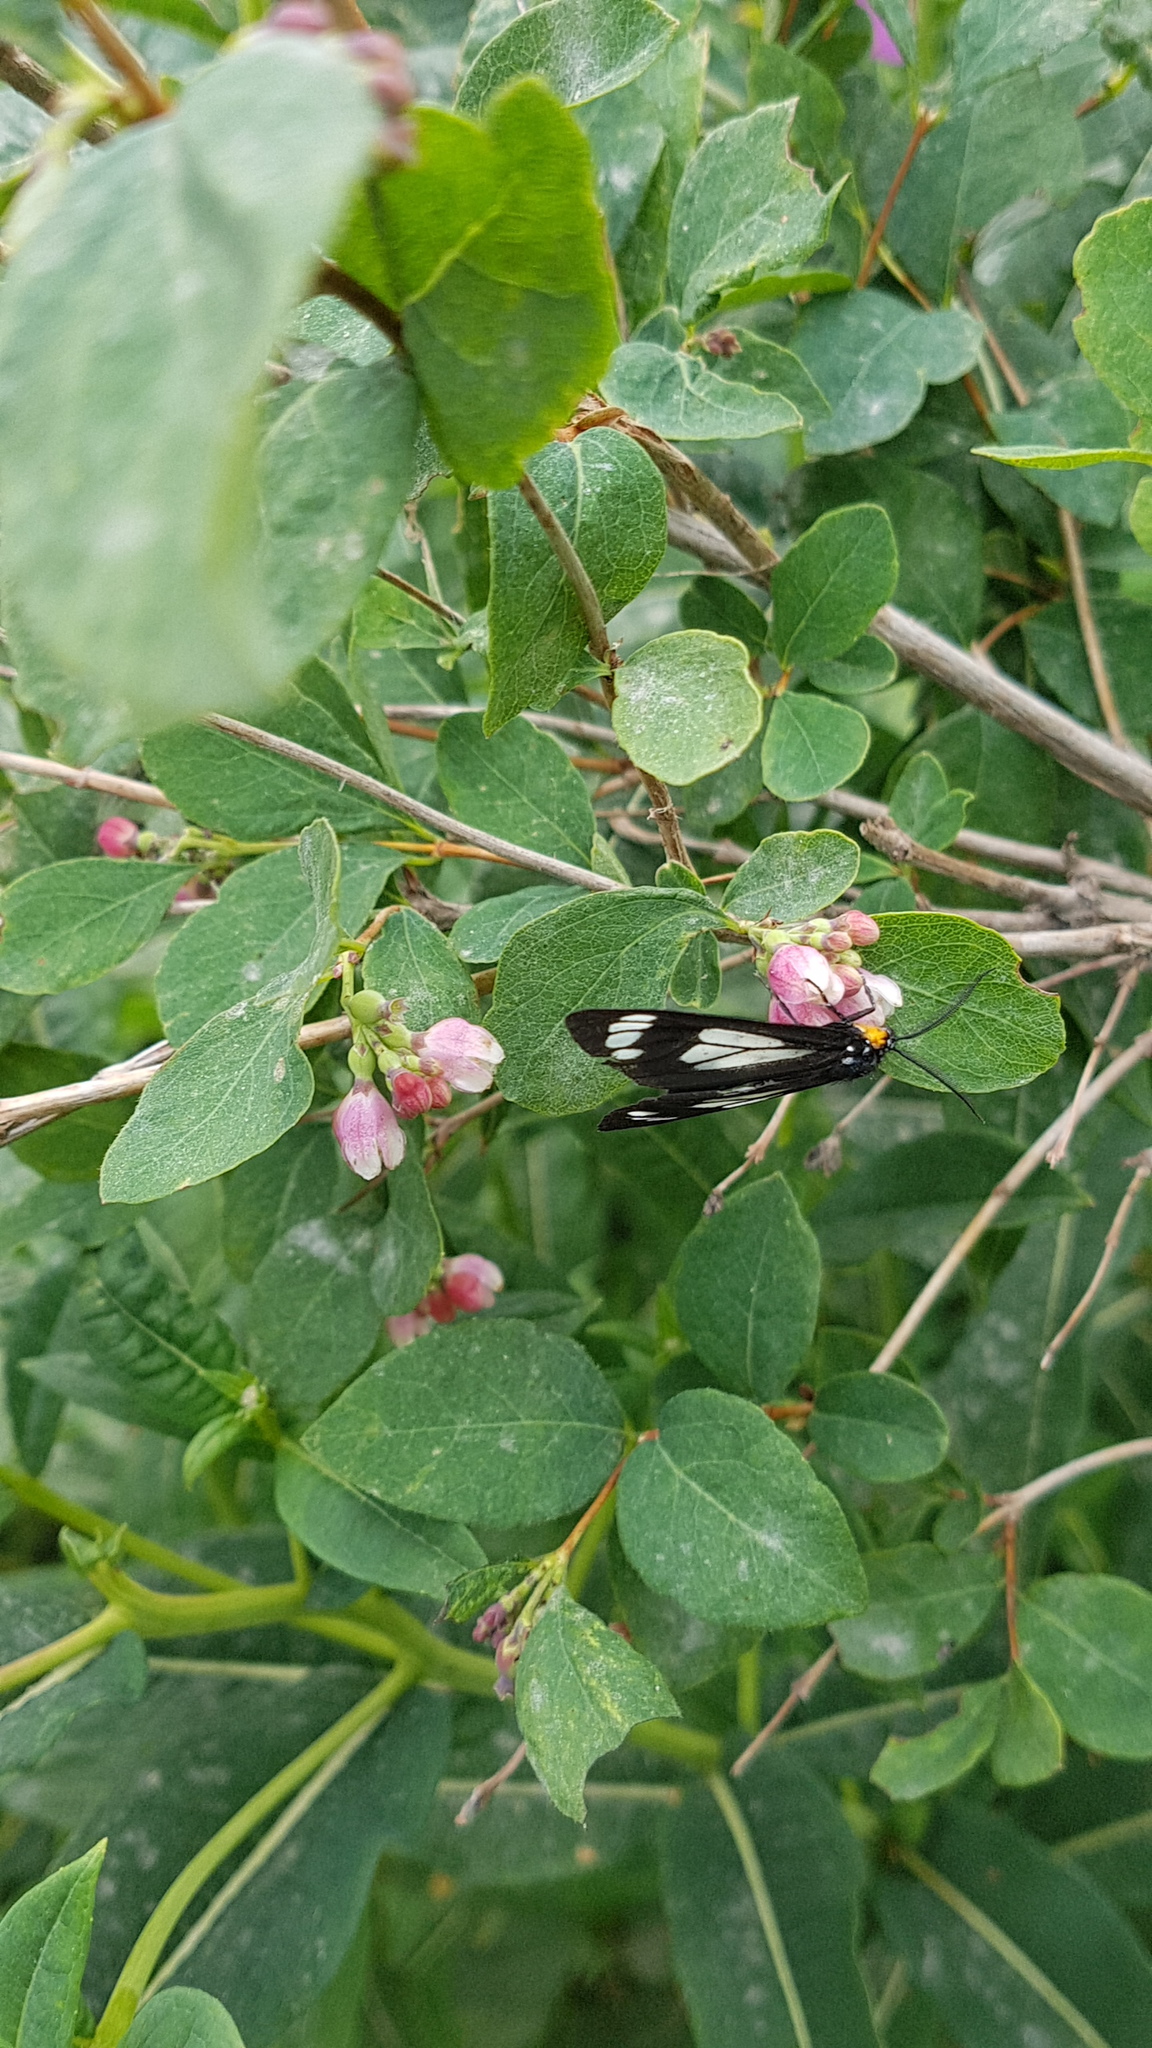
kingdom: Animalia
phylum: Arthropoda
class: Insecta
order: Lepidoptera
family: Erebidae
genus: Gnophaela
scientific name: Gnophaela vermiculata
